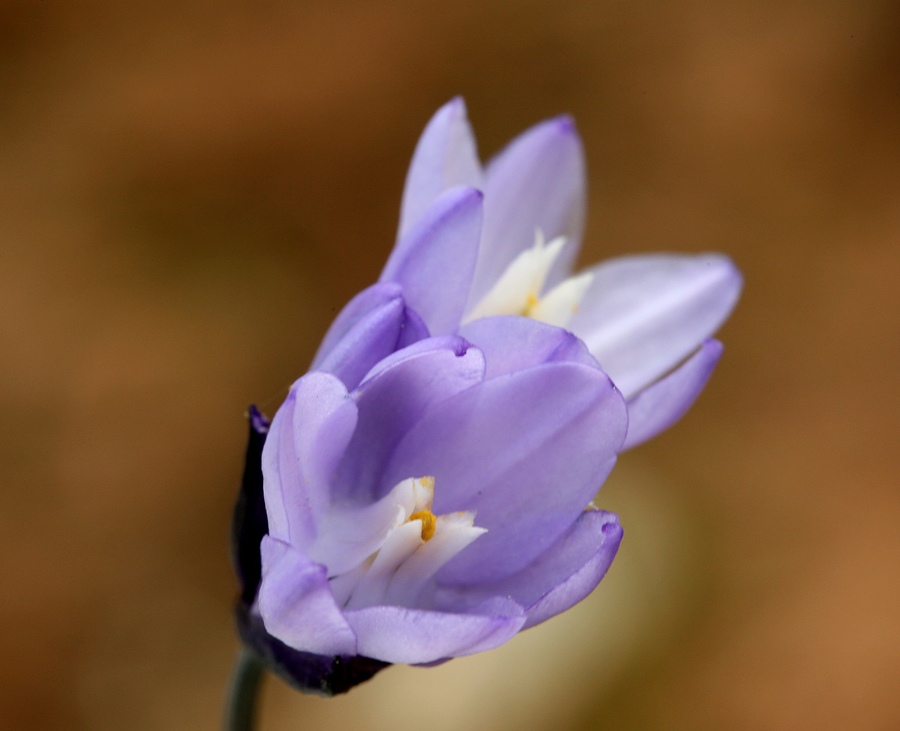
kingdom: Plantae
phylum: Tracheophyta
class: Liliopsida
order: Asparagales
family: Asparagaceae
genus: Dipterostemon
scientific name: Dipterostemon capitatus
